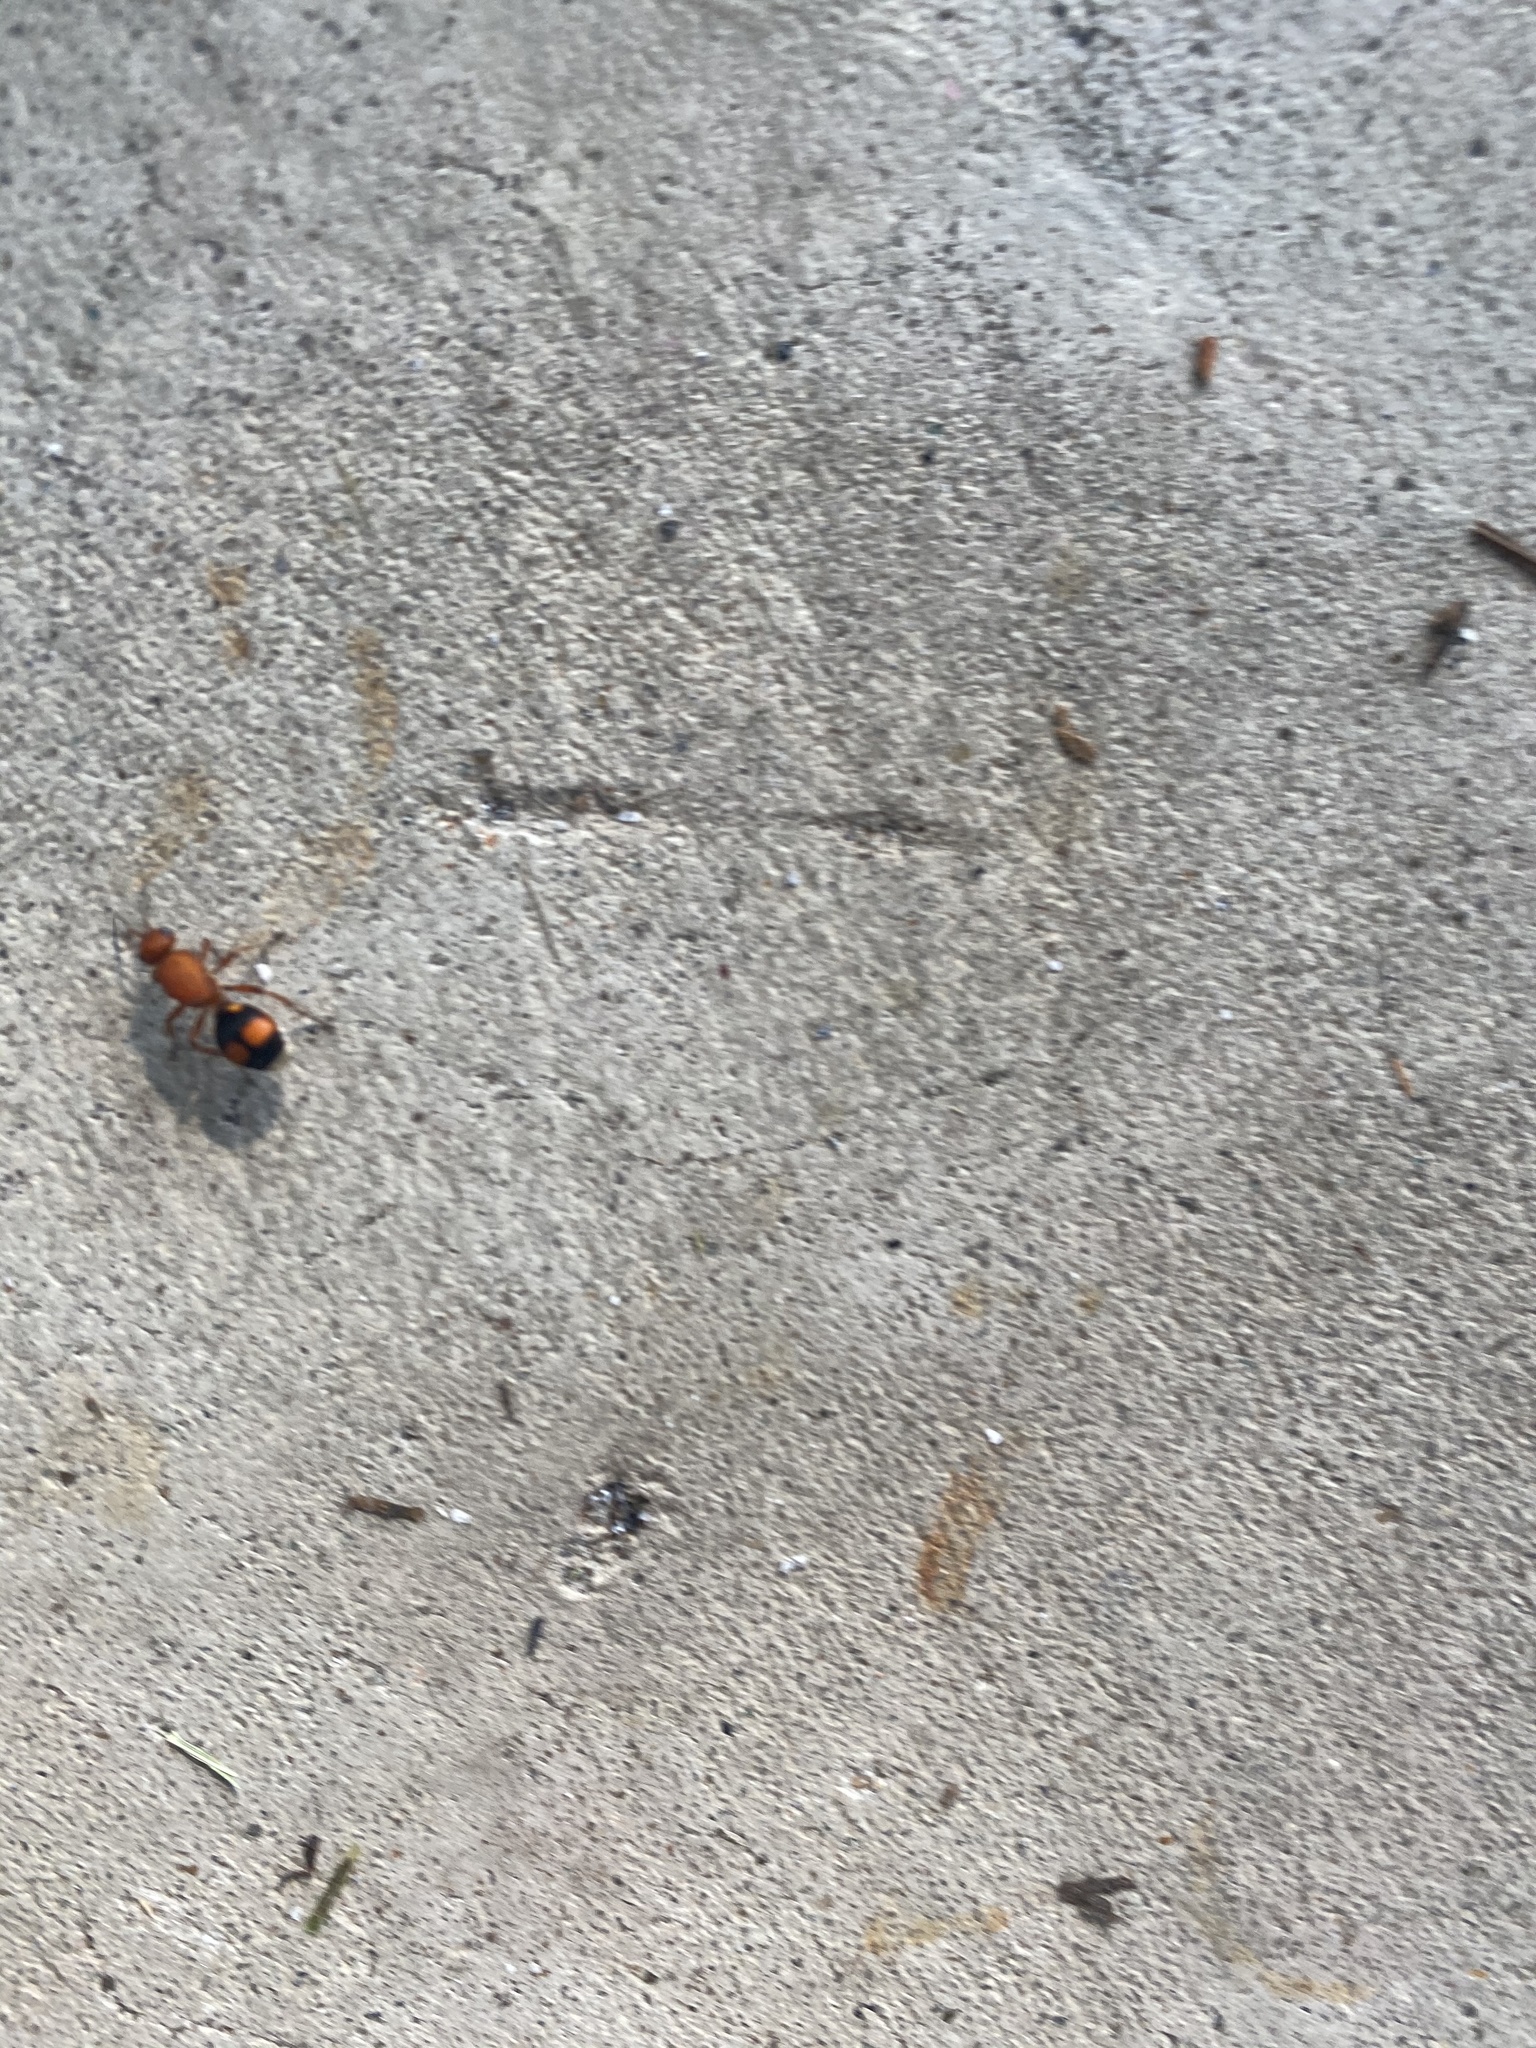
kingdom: Animalia
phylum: Arthropoda
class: Insecta
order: Hymenoptera
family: Mutillidae
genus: Dasymutilla
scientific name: Dasymutilla
